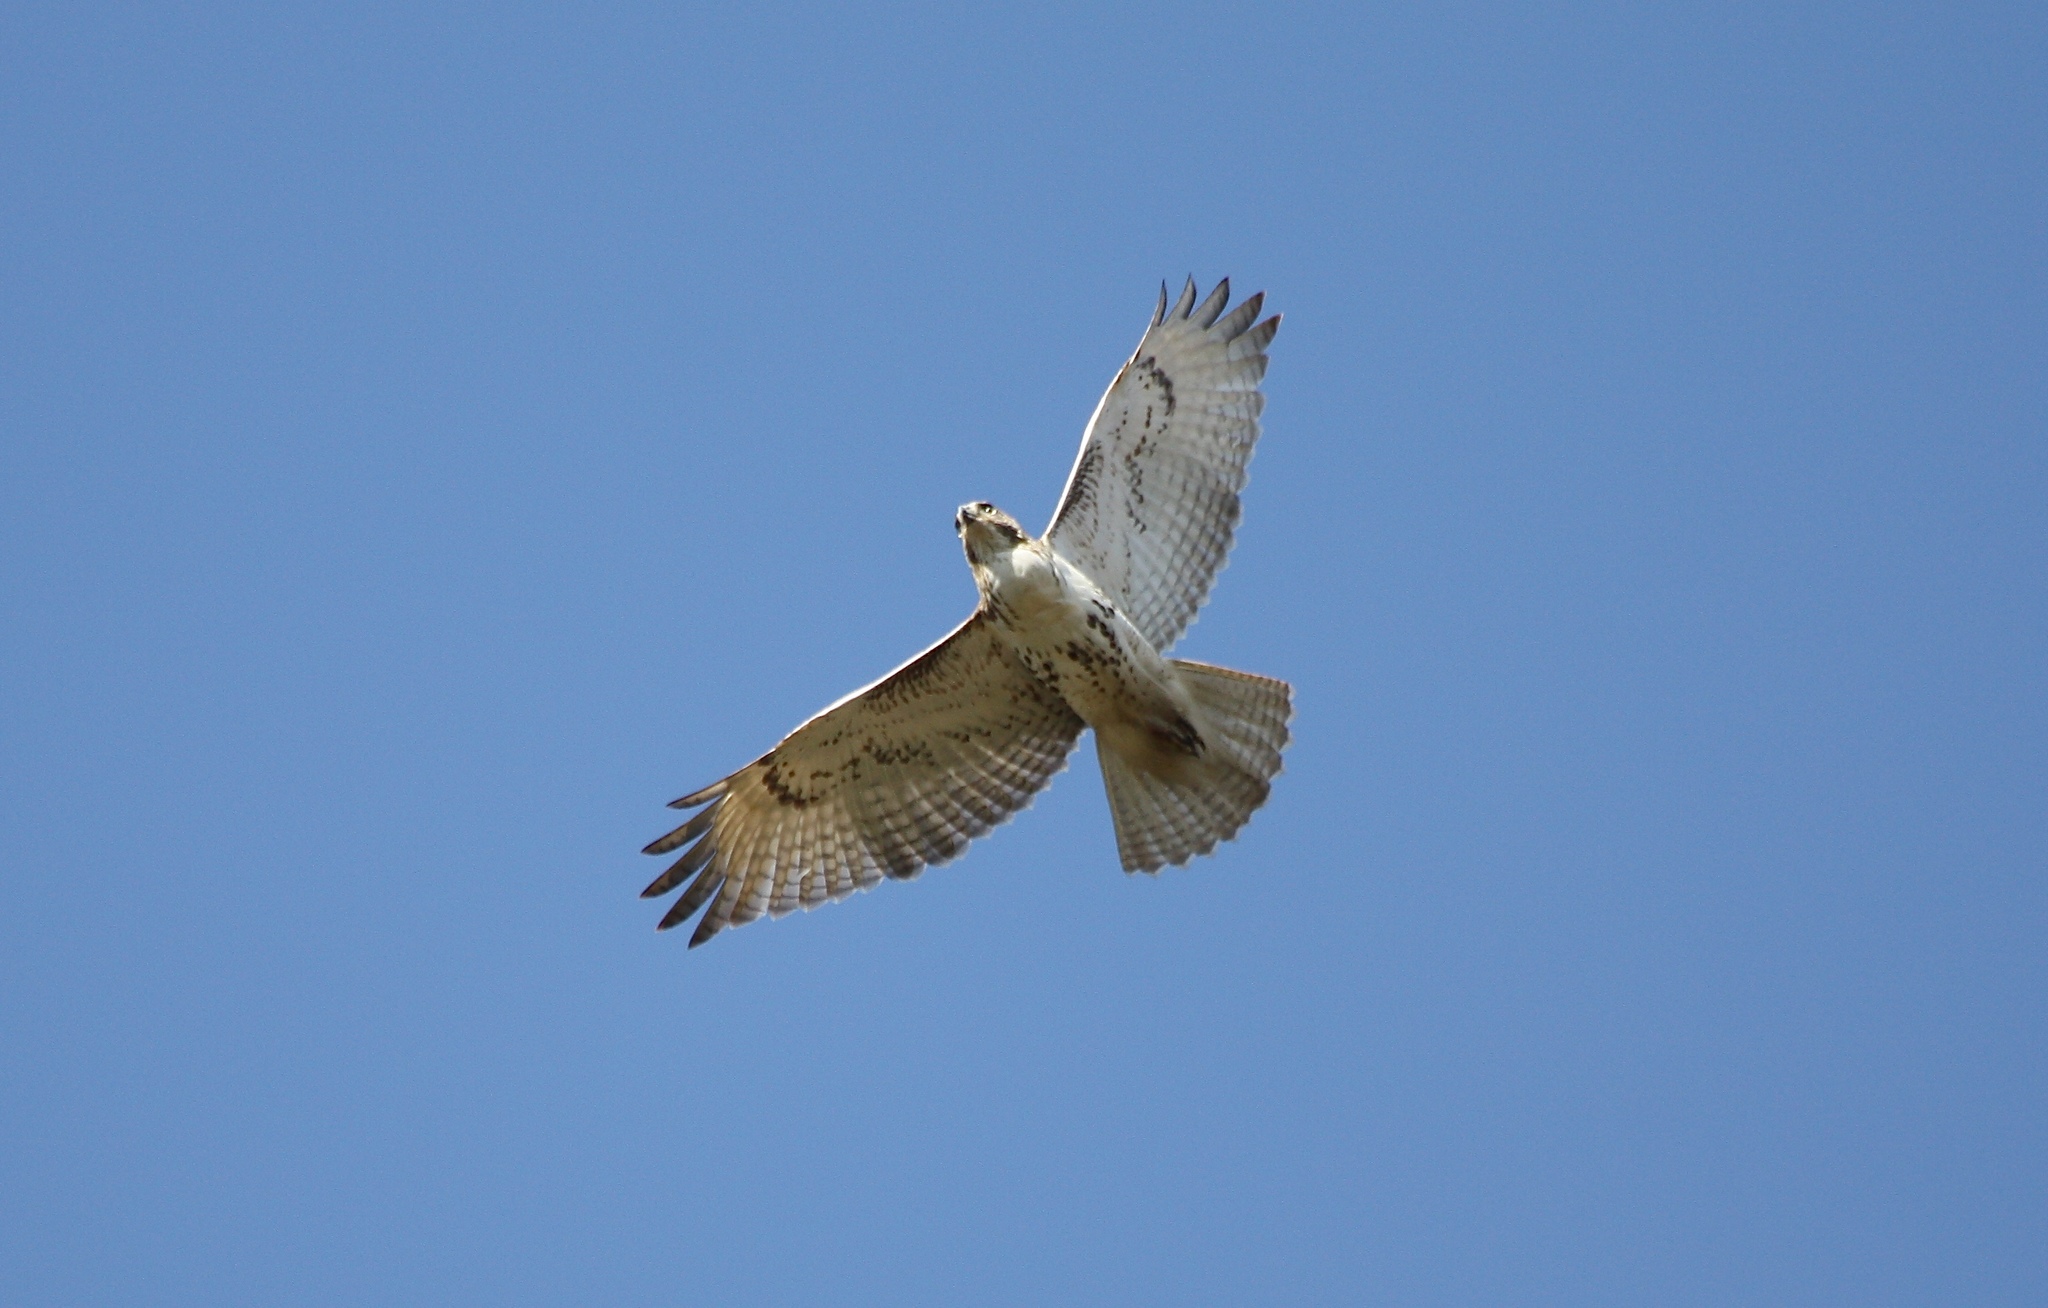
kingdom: Animalia
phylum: Chordata
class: Aves
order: Accipitriformes
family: Accipitridae
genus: Buteo
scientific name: Buteo jamaicensis
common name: Red-tailed hawk
